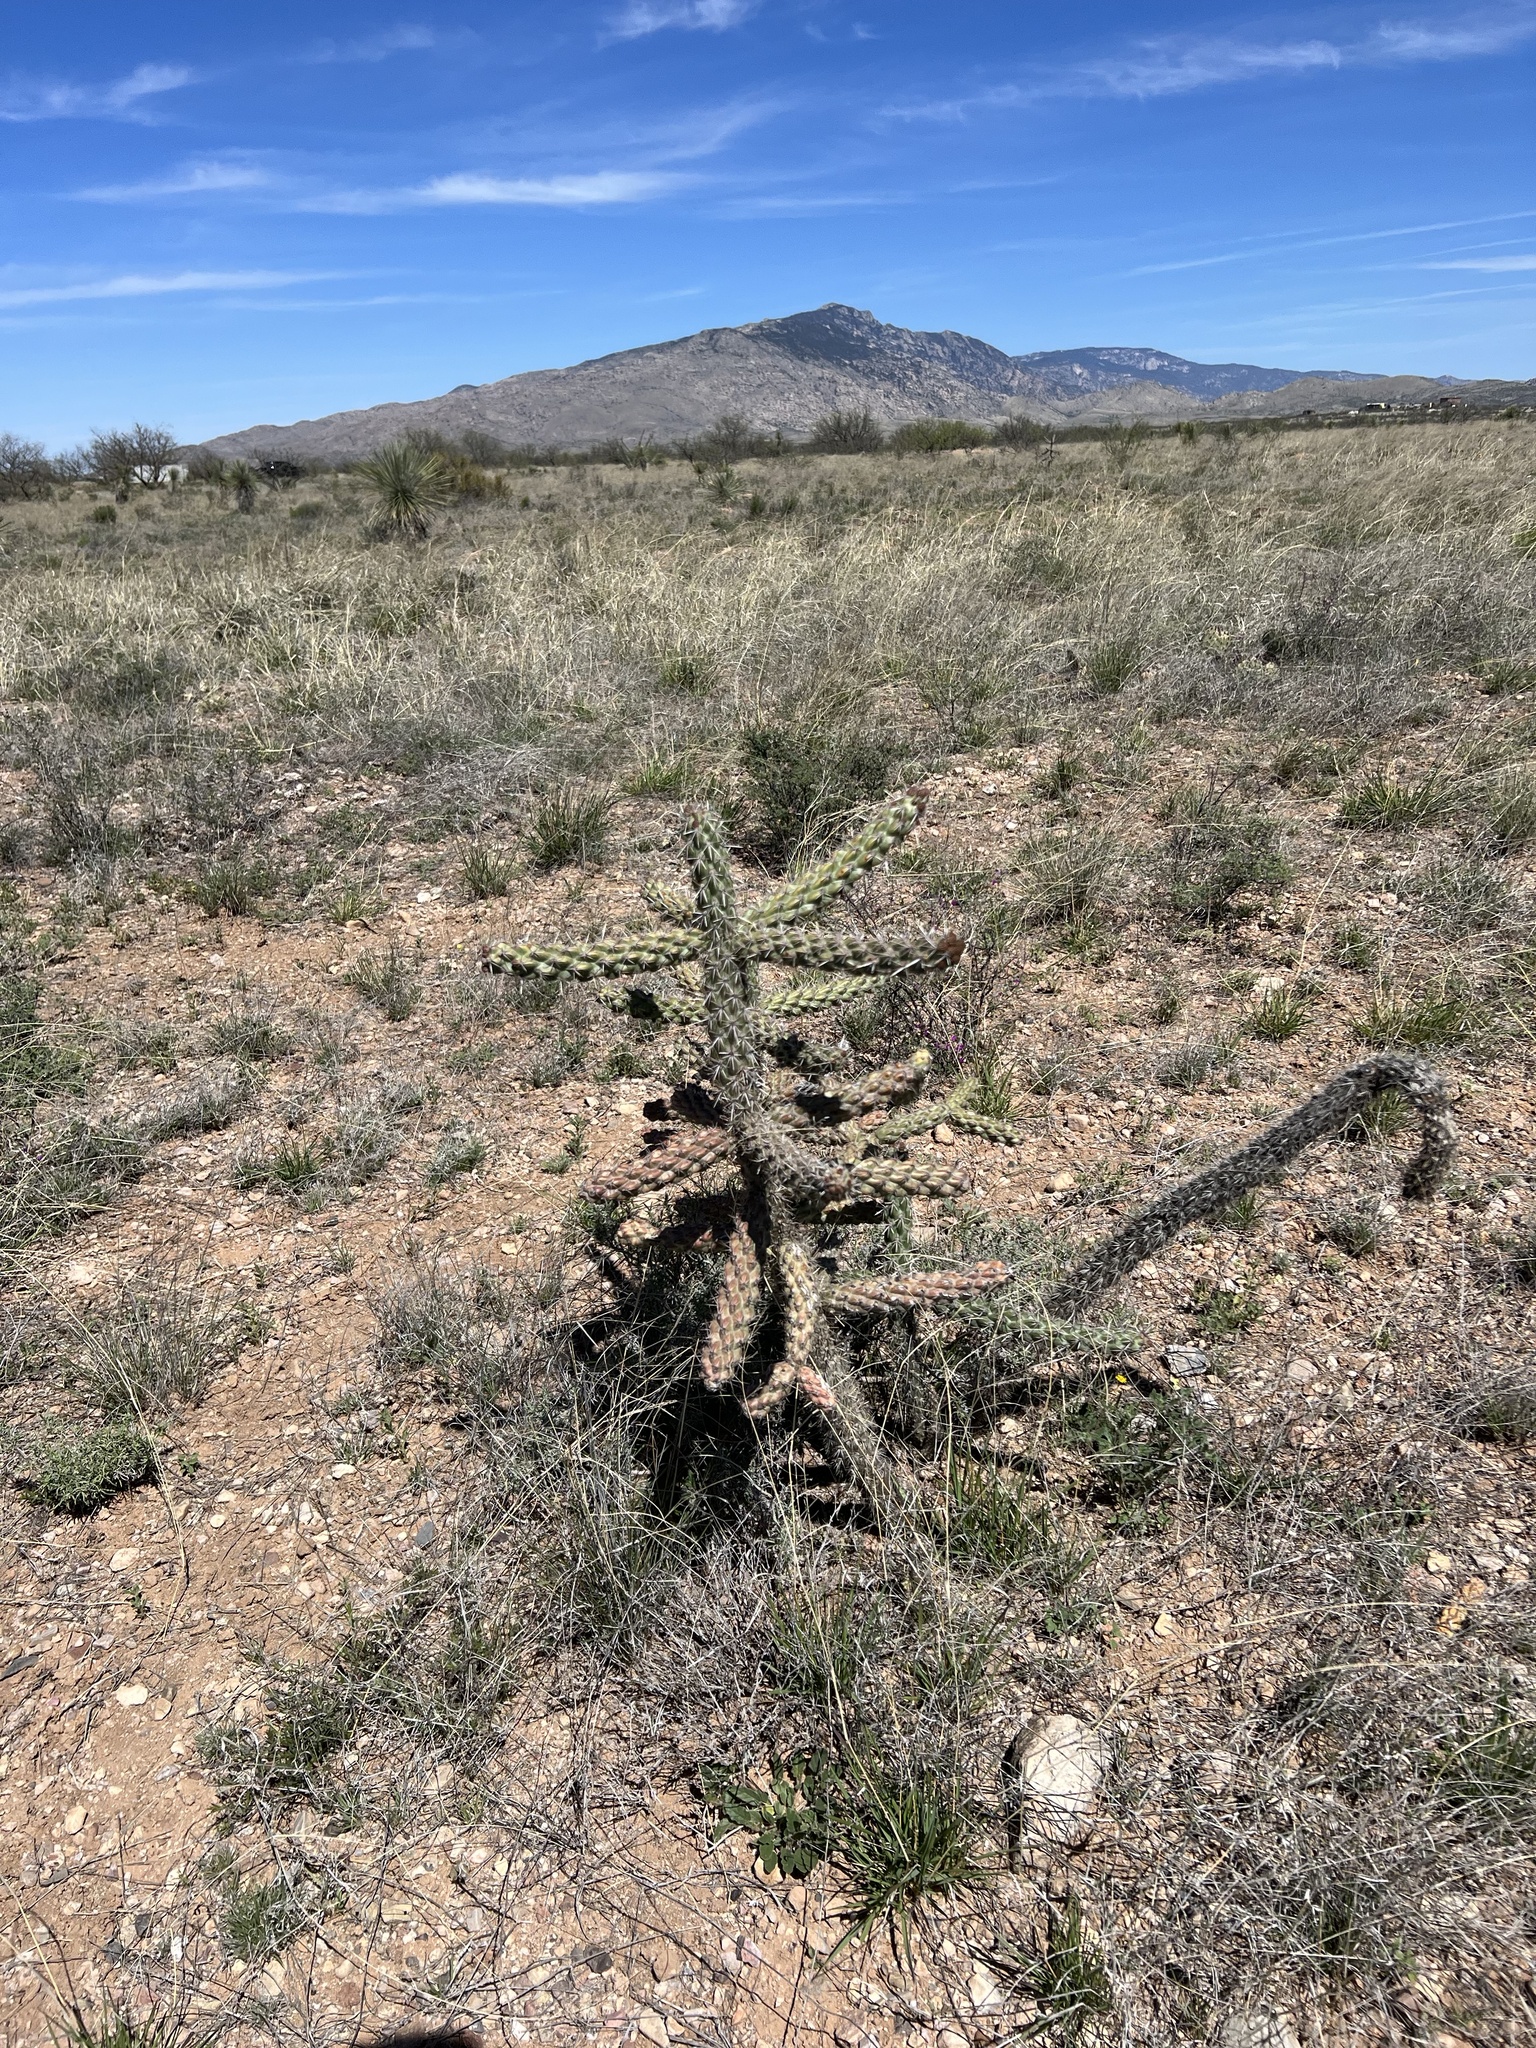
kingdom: Plantae
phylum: Tracheophyta
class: Magnoliopsida
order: Caryophyllales
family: Cactaceae
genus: Cylindropuntia
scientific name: Cylindropuntia imbricata
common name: Candelabrum cactus
